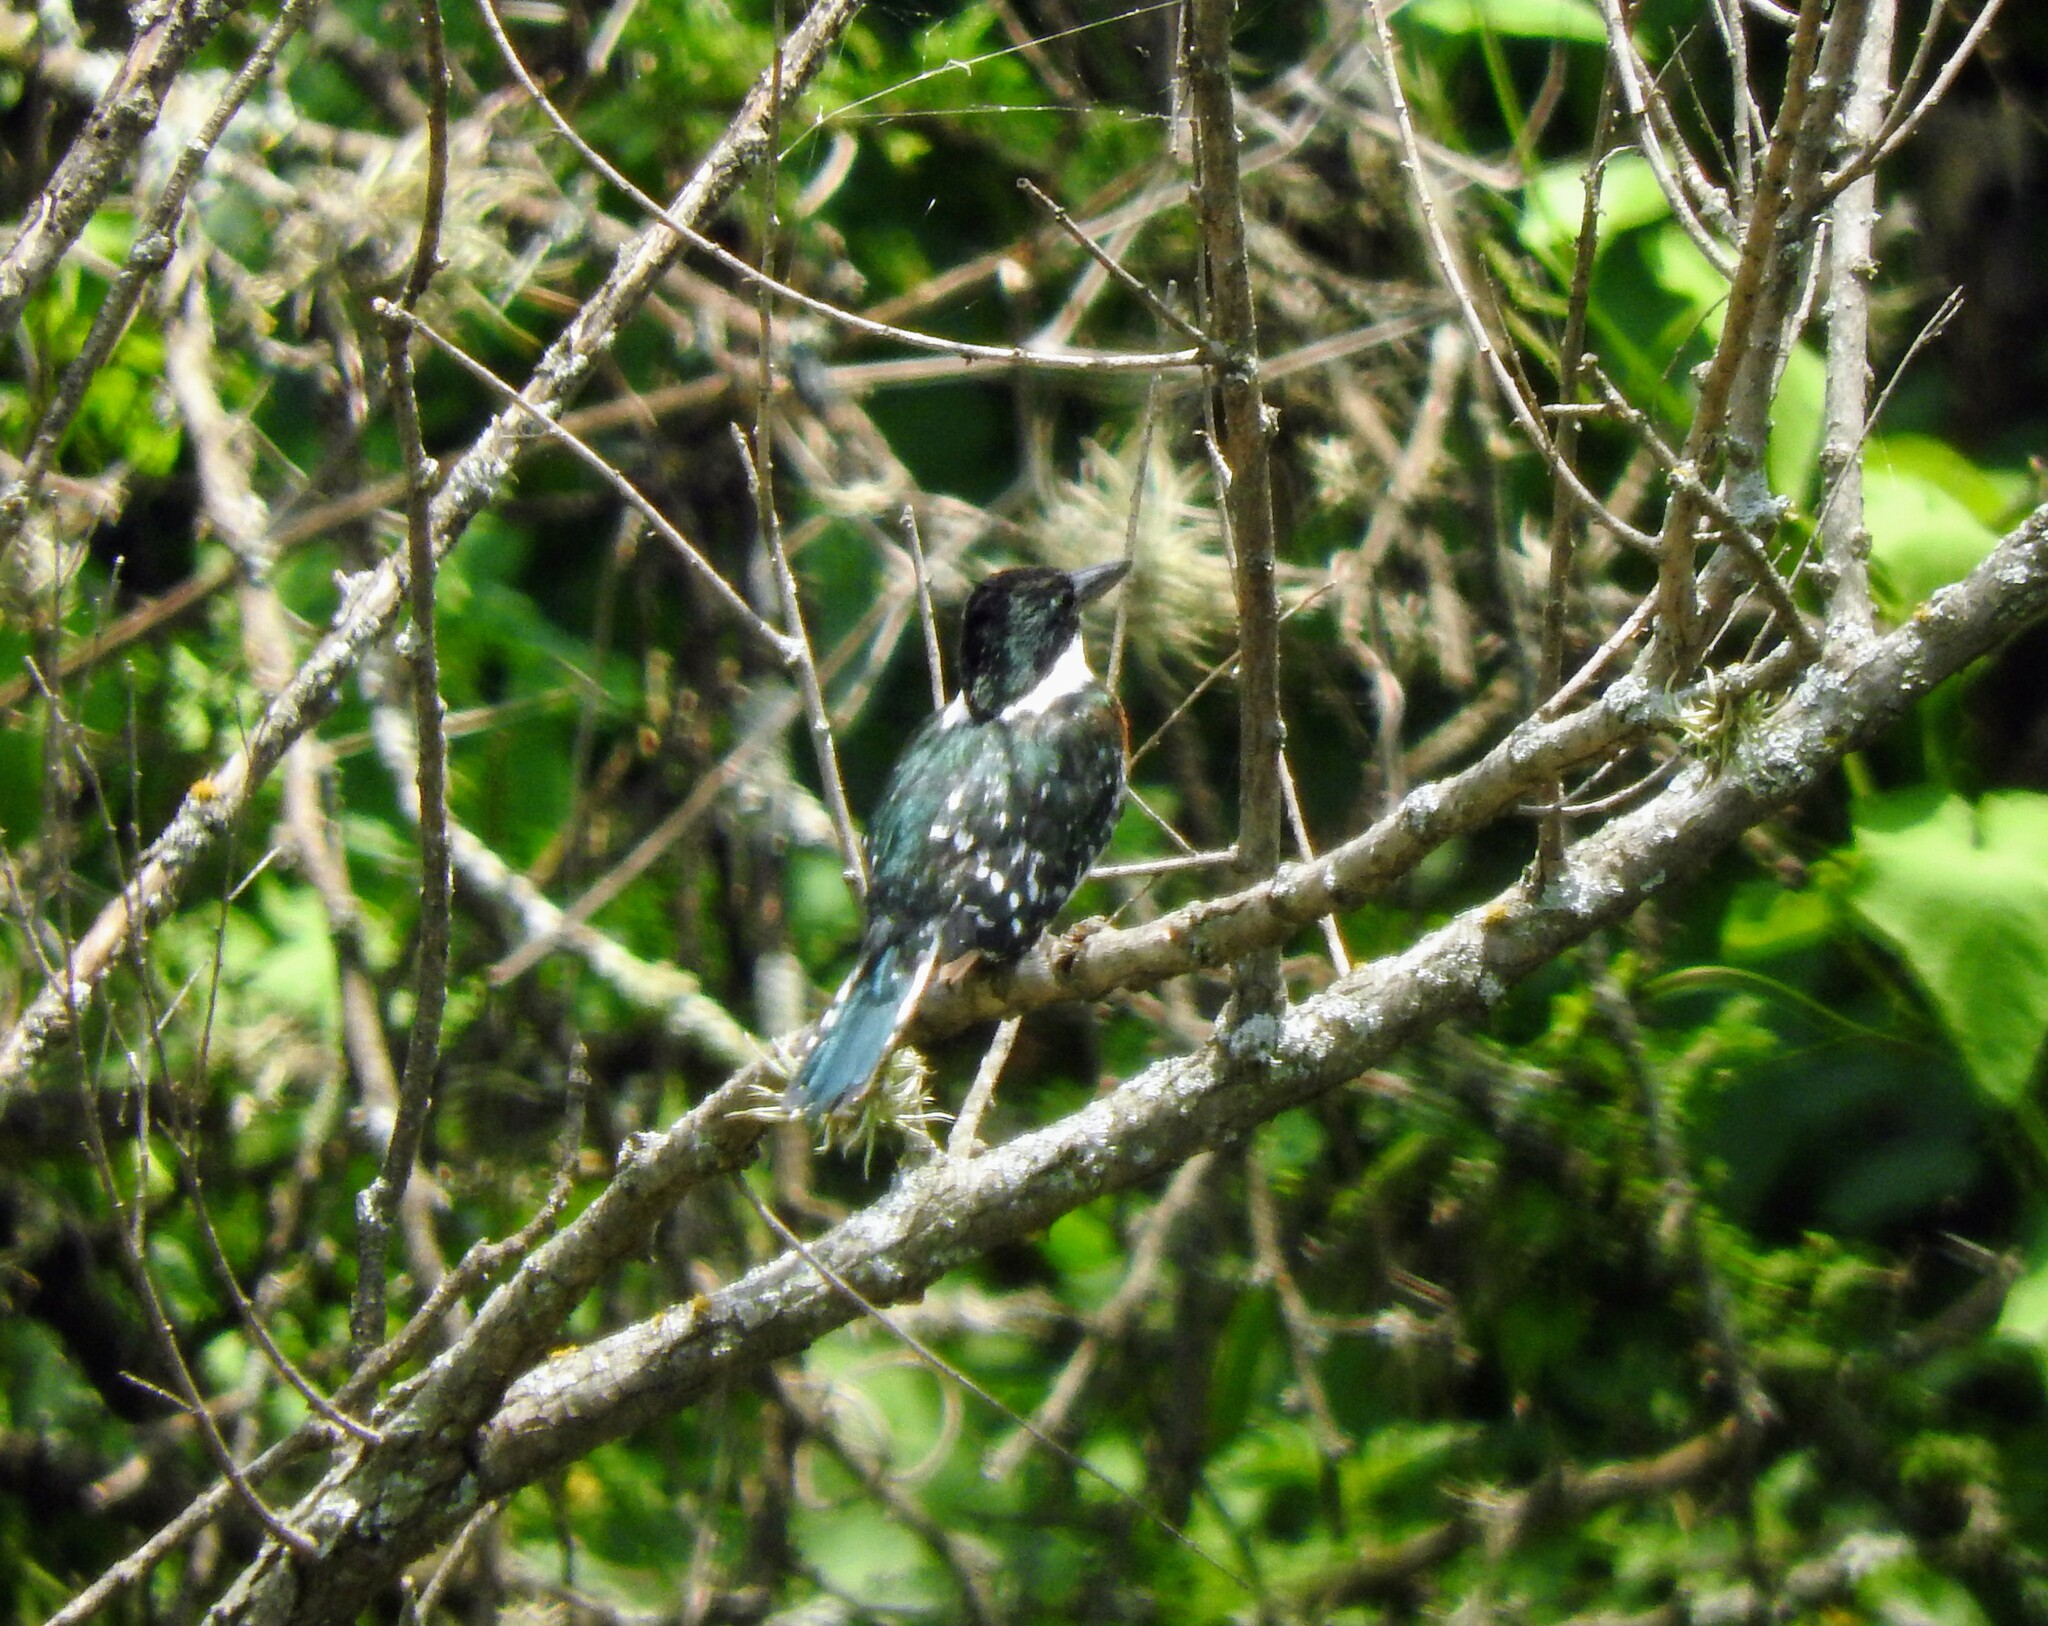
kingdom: Animalia
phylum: Chordata
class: Aves
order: Coraciiformes
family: Alcedinidae
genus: Chloroceryle
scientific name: Chloroceryle americana
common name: Green kingfisher
